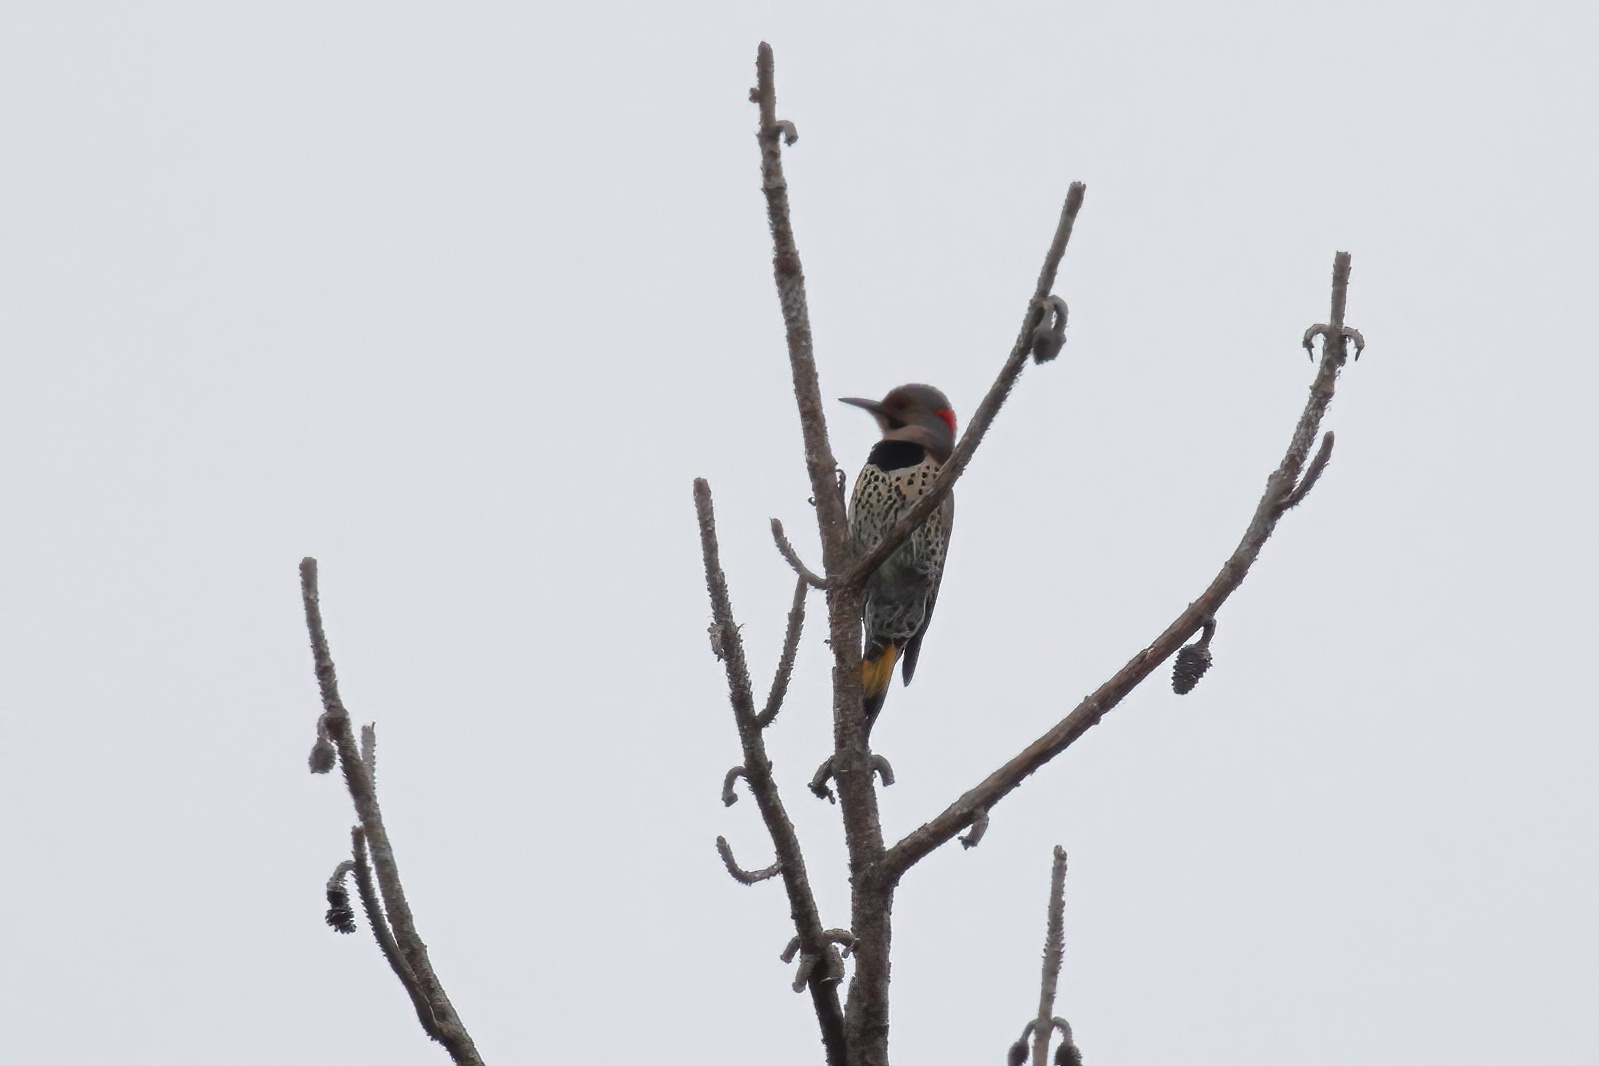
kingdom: Animalia
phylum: Chordata
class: Aves
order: Piciformes
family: Picidae
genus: Colaptes
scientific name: Colaptes auratus
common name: Northern flicker
